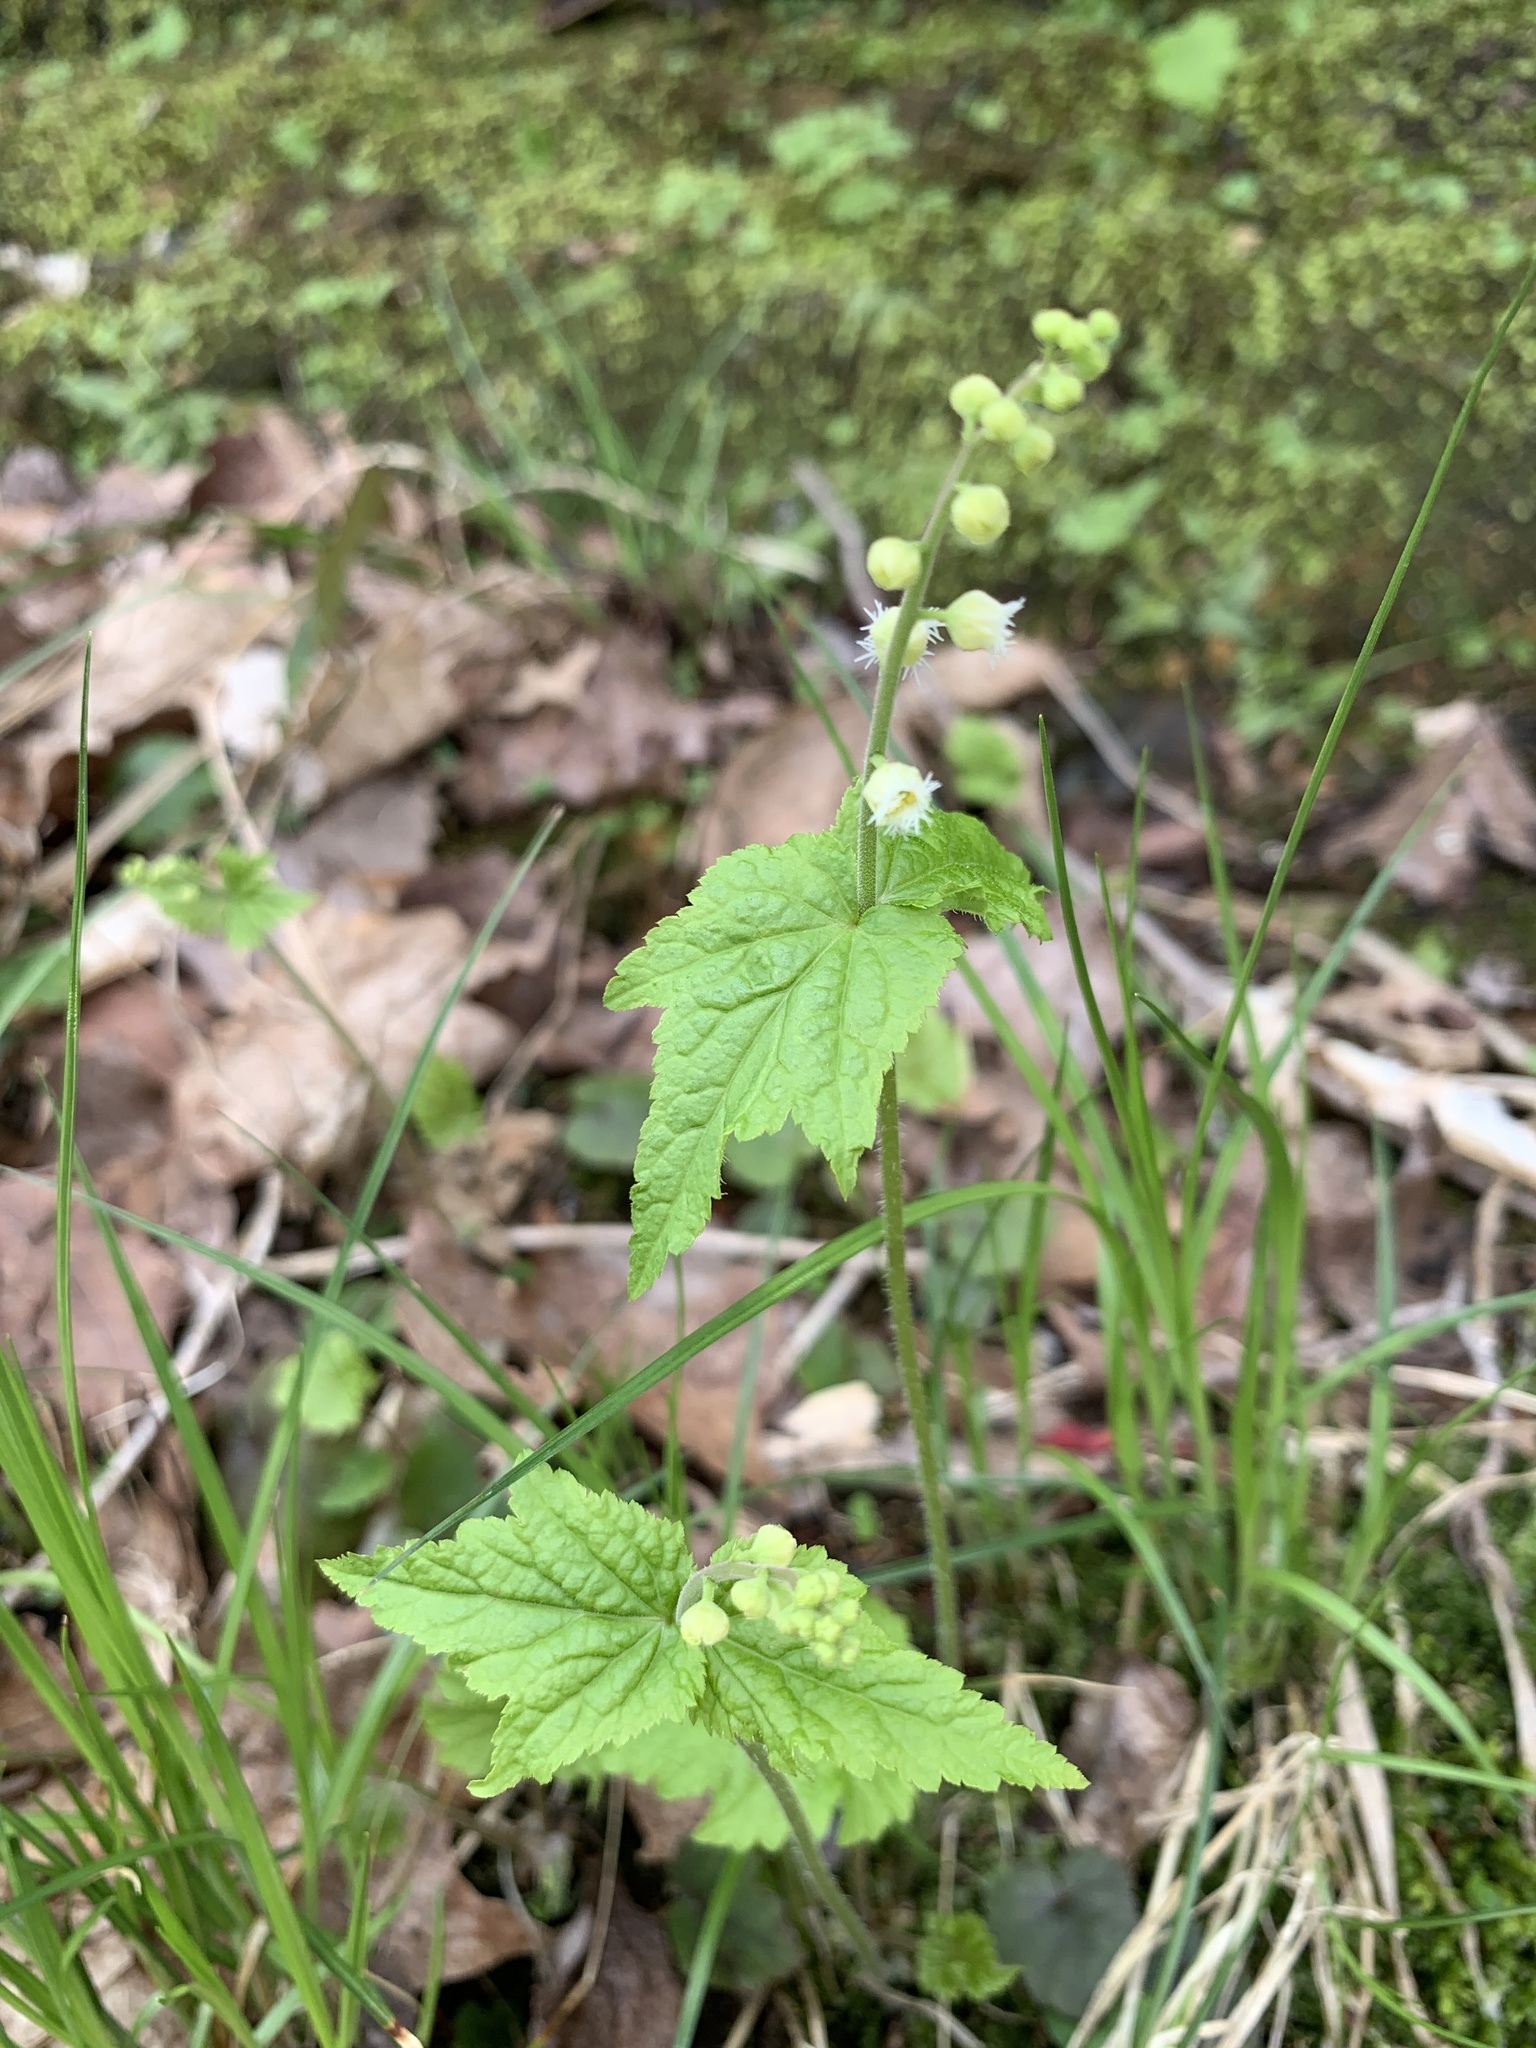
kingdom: Plantae
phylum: Tracheophyta
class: Magnoliopsida
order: Saxifragales
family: Saxifragaceae
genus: Mitella
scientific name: Mitella diphylla
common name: Coolwort
